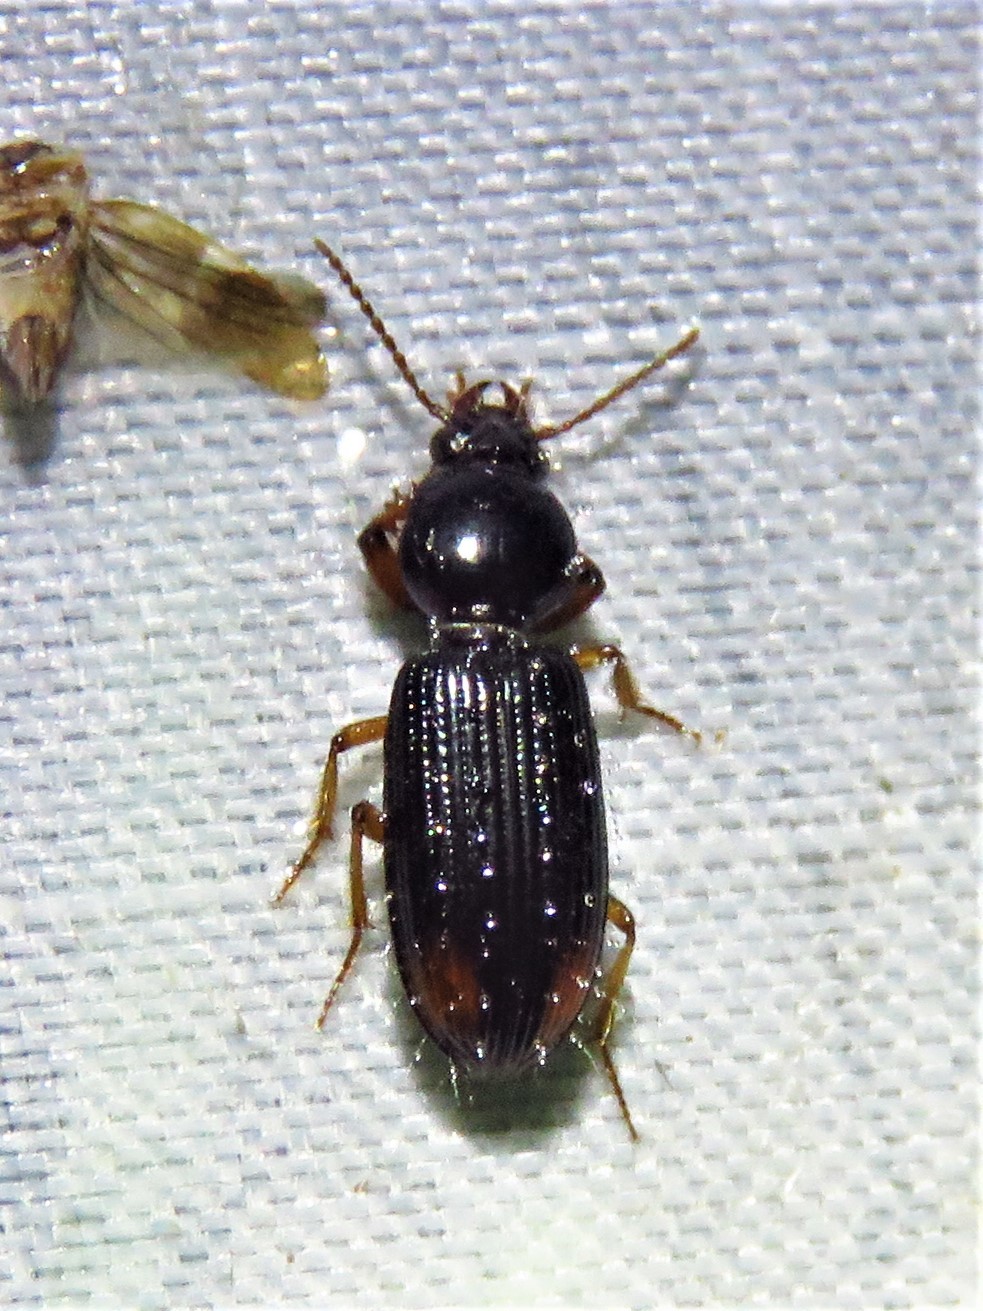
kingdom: Animalia
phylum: Arthropoda
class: Insecta
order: Coleoptera
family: Carabidae
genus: Aspidoglossa
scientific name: Aspidoglossa subangulata
